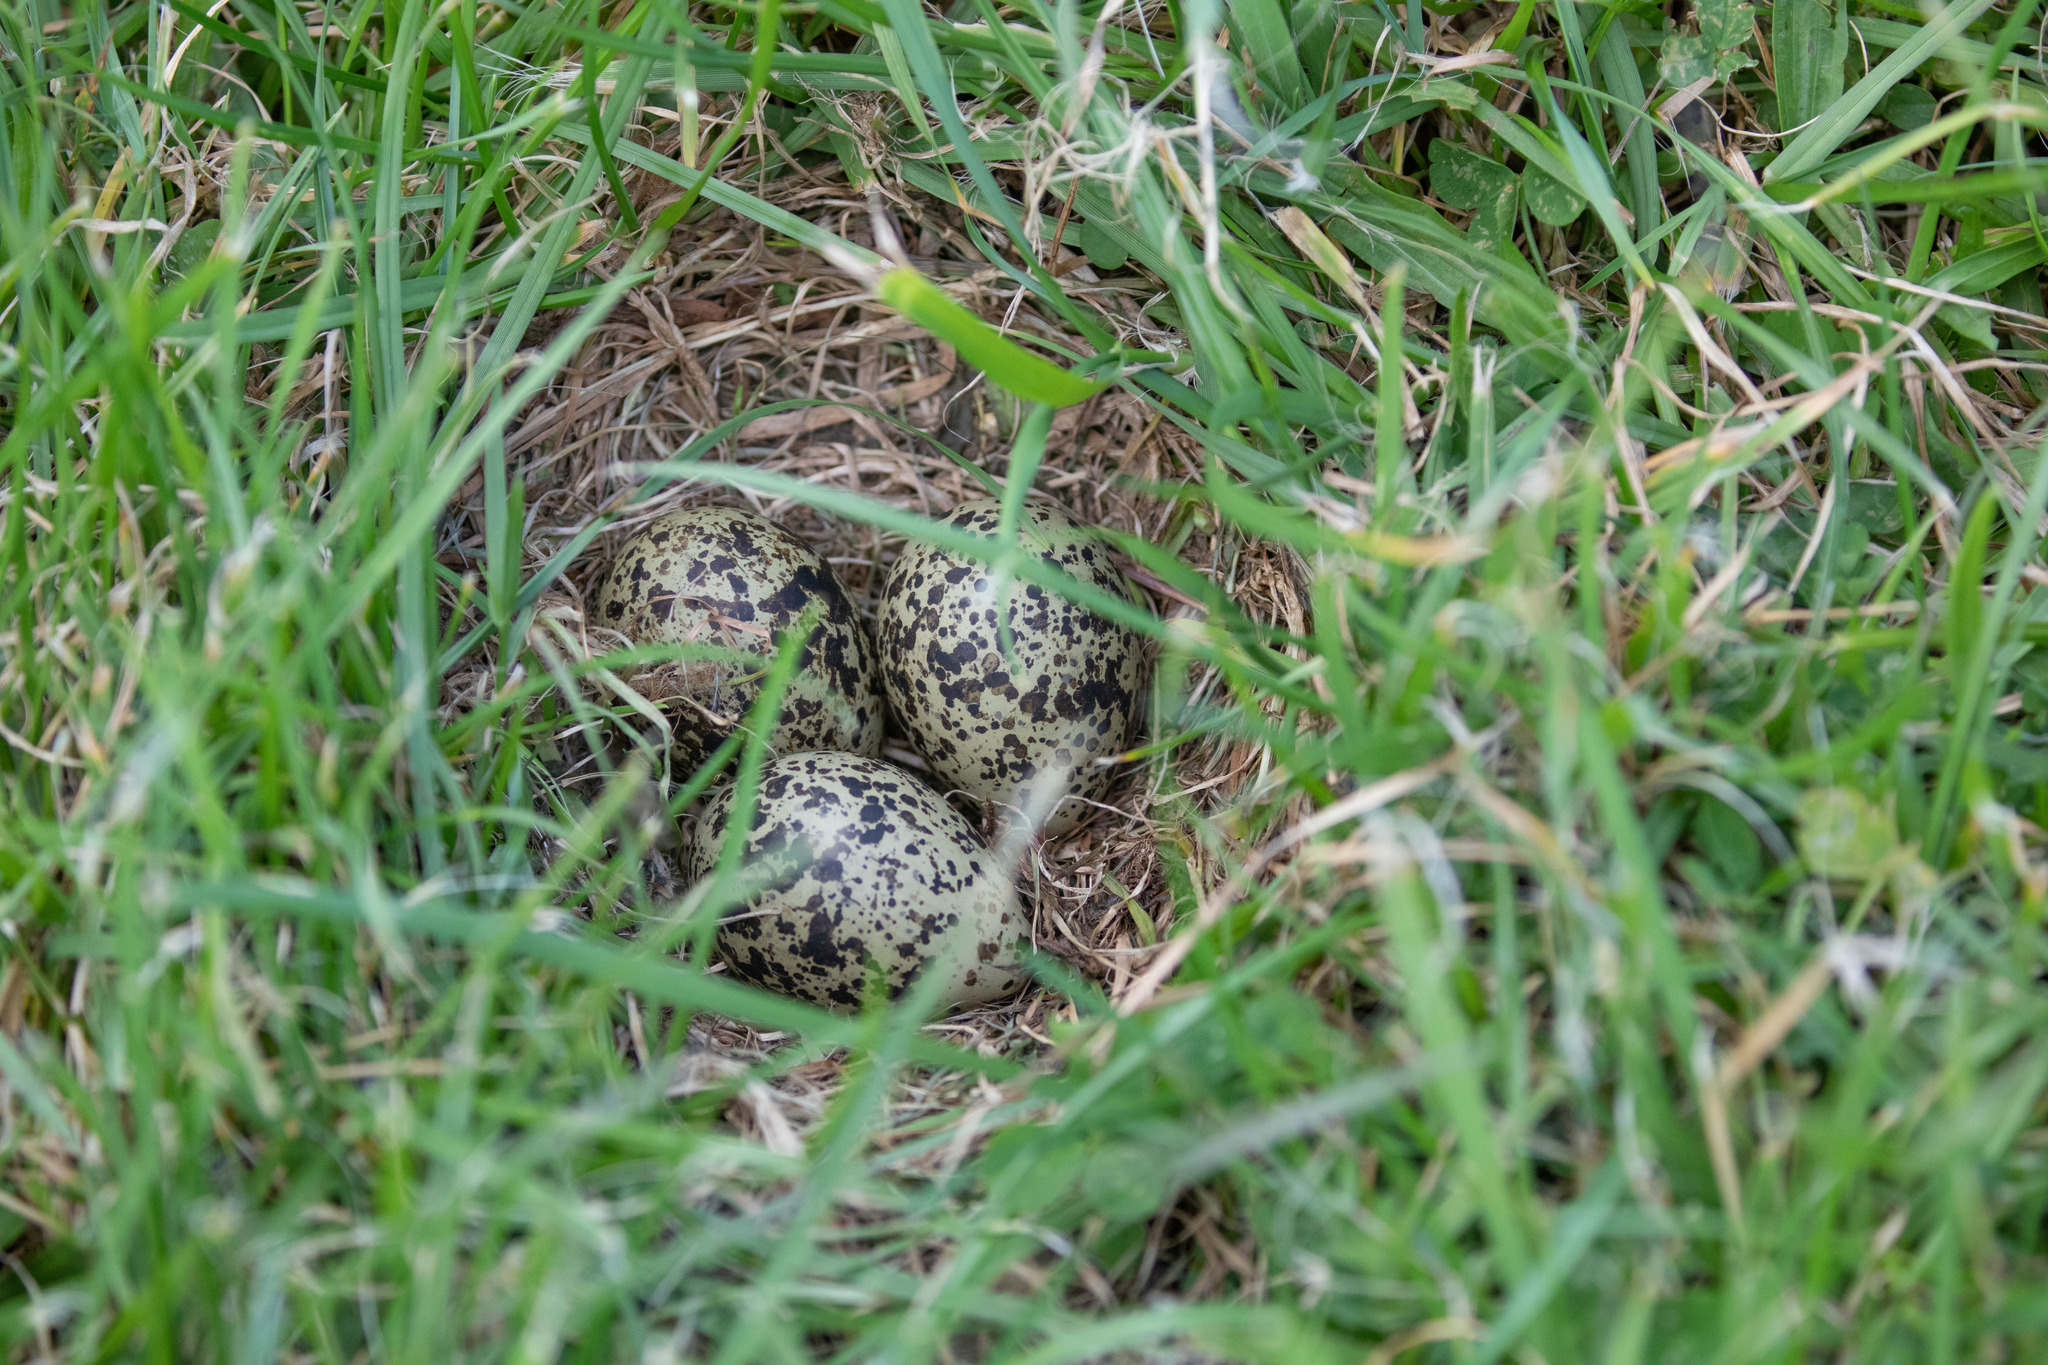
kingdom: Animalia
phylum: Chordata
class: Aves
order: Charadriiformes
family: Charadriidae
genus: Anarhynchus
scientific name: Anarhynchus
